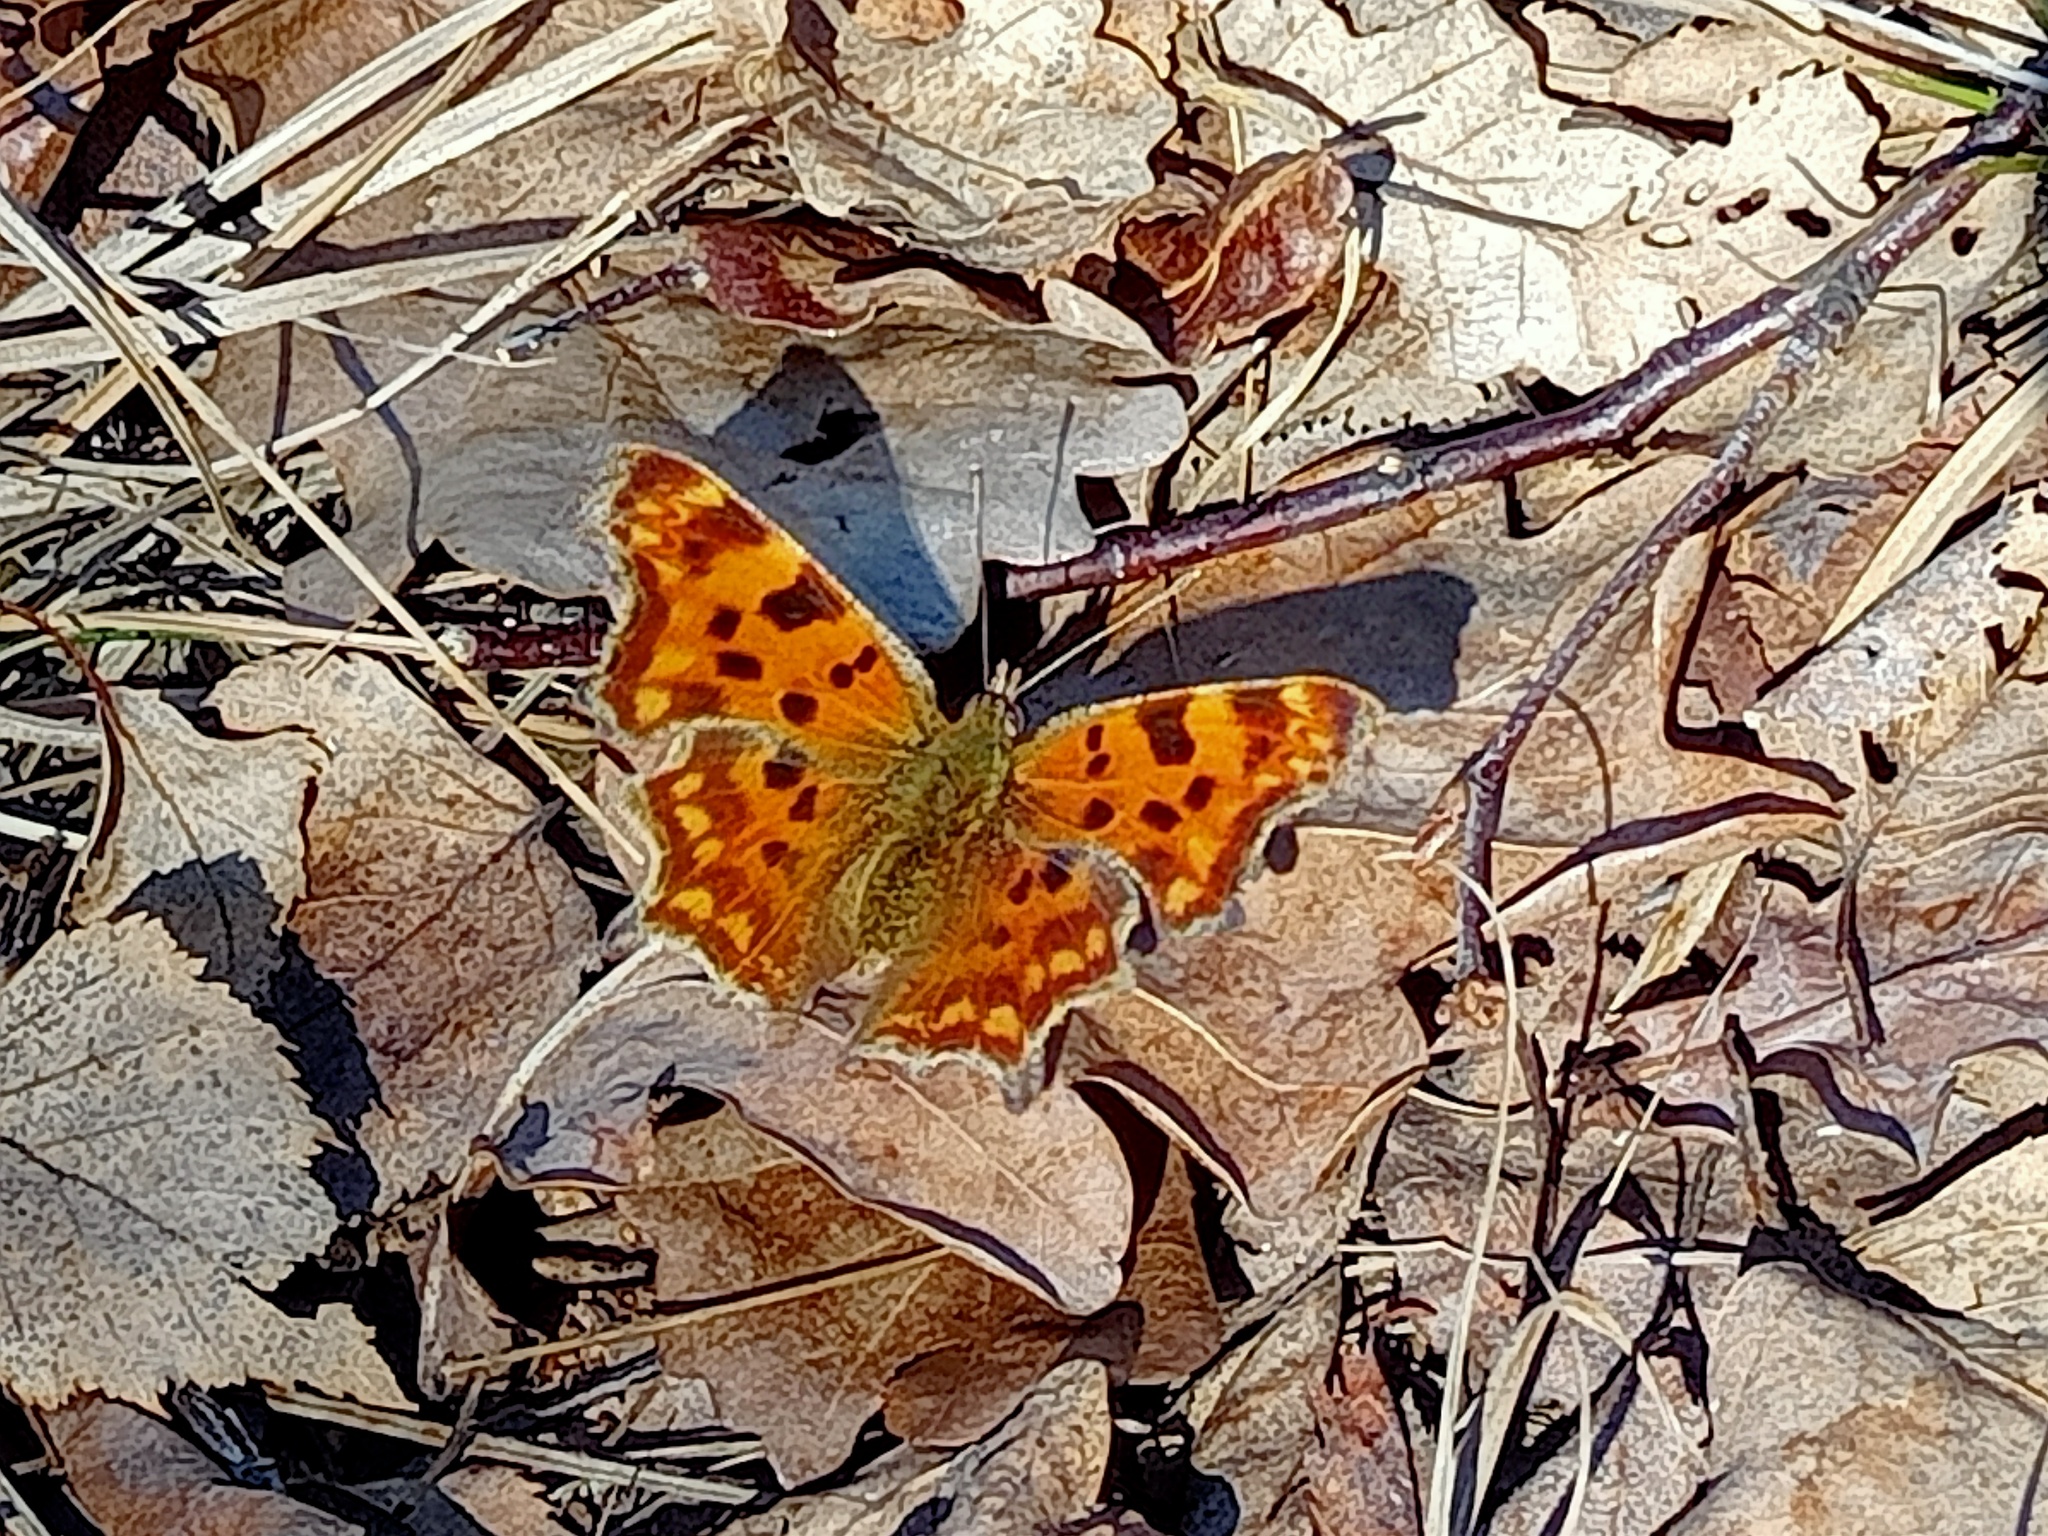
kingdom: Animalia
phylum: Arthropoda
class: Insecta
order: Lepidoptera
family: Nymphalidae
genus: Polygonia
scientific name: Polygonia c-album
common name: Comma
